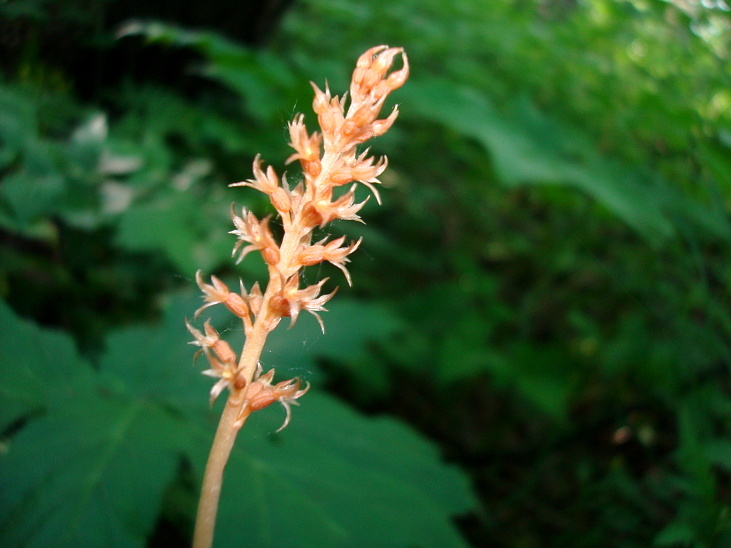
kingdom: Plantae
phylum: Tracheophyta
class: Liliopsida
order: Asparagales
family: Orchidaceae
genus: Neottia
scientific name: Neottia acuminata
